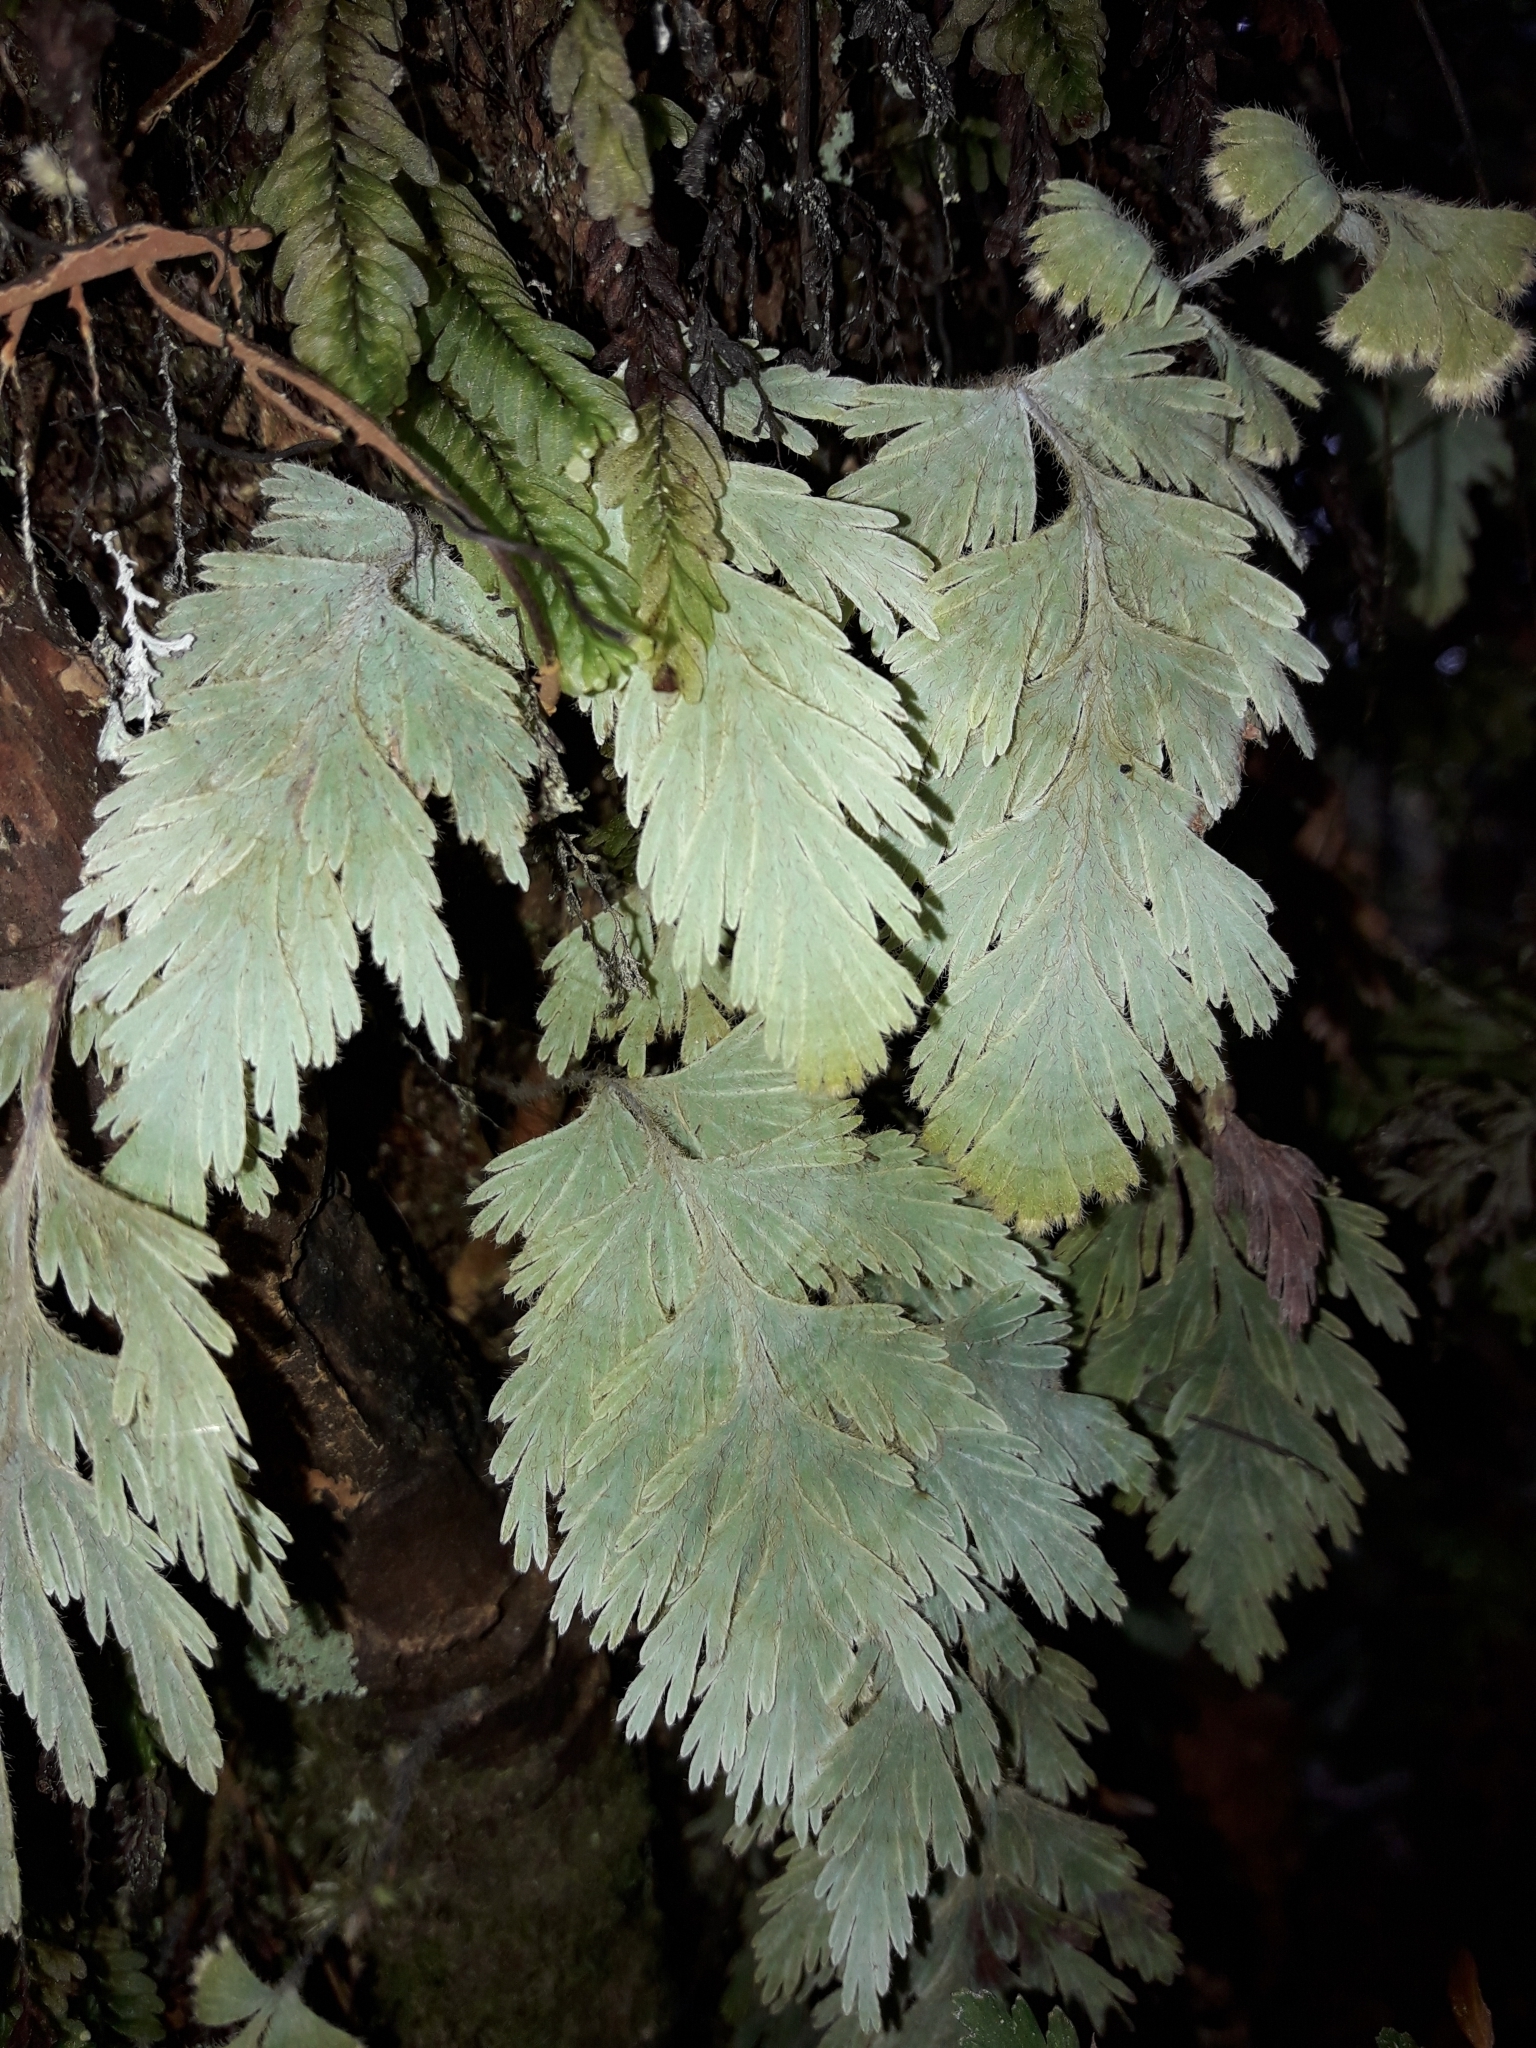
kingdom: Plantae
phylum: Tracheophyta
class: Polypodiopsida
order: Hymenophyllales
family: Hymenophyllaceae
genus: Hymenophyllum
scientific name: Hymenophyllum pallidum
